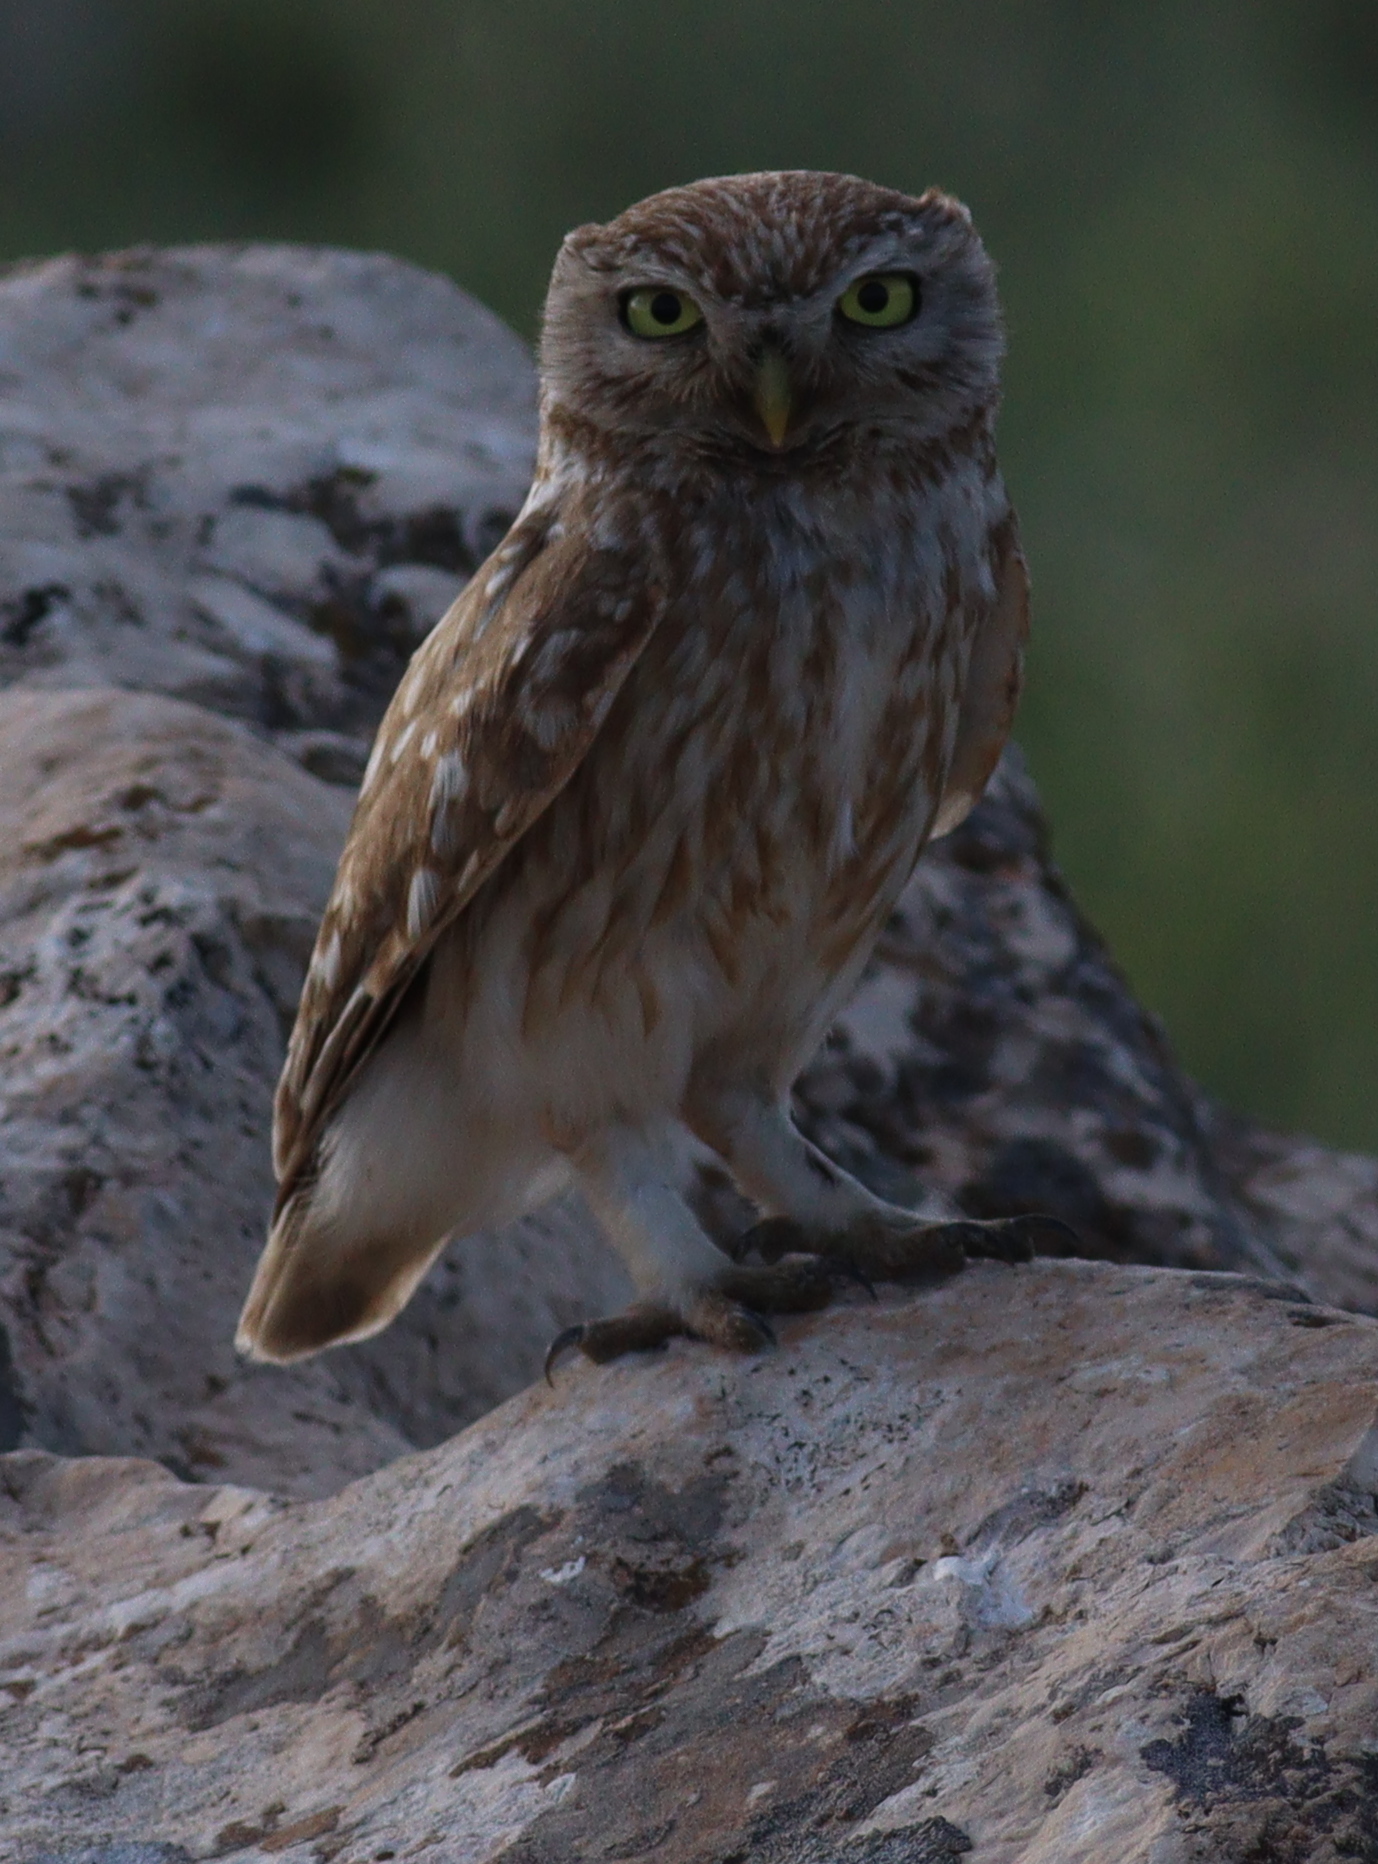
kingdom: Animalia
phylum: Chordata
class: Aves
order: Strigiformes
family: Strigidae
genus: Athene
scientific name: Athene noctua
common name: Little owl
